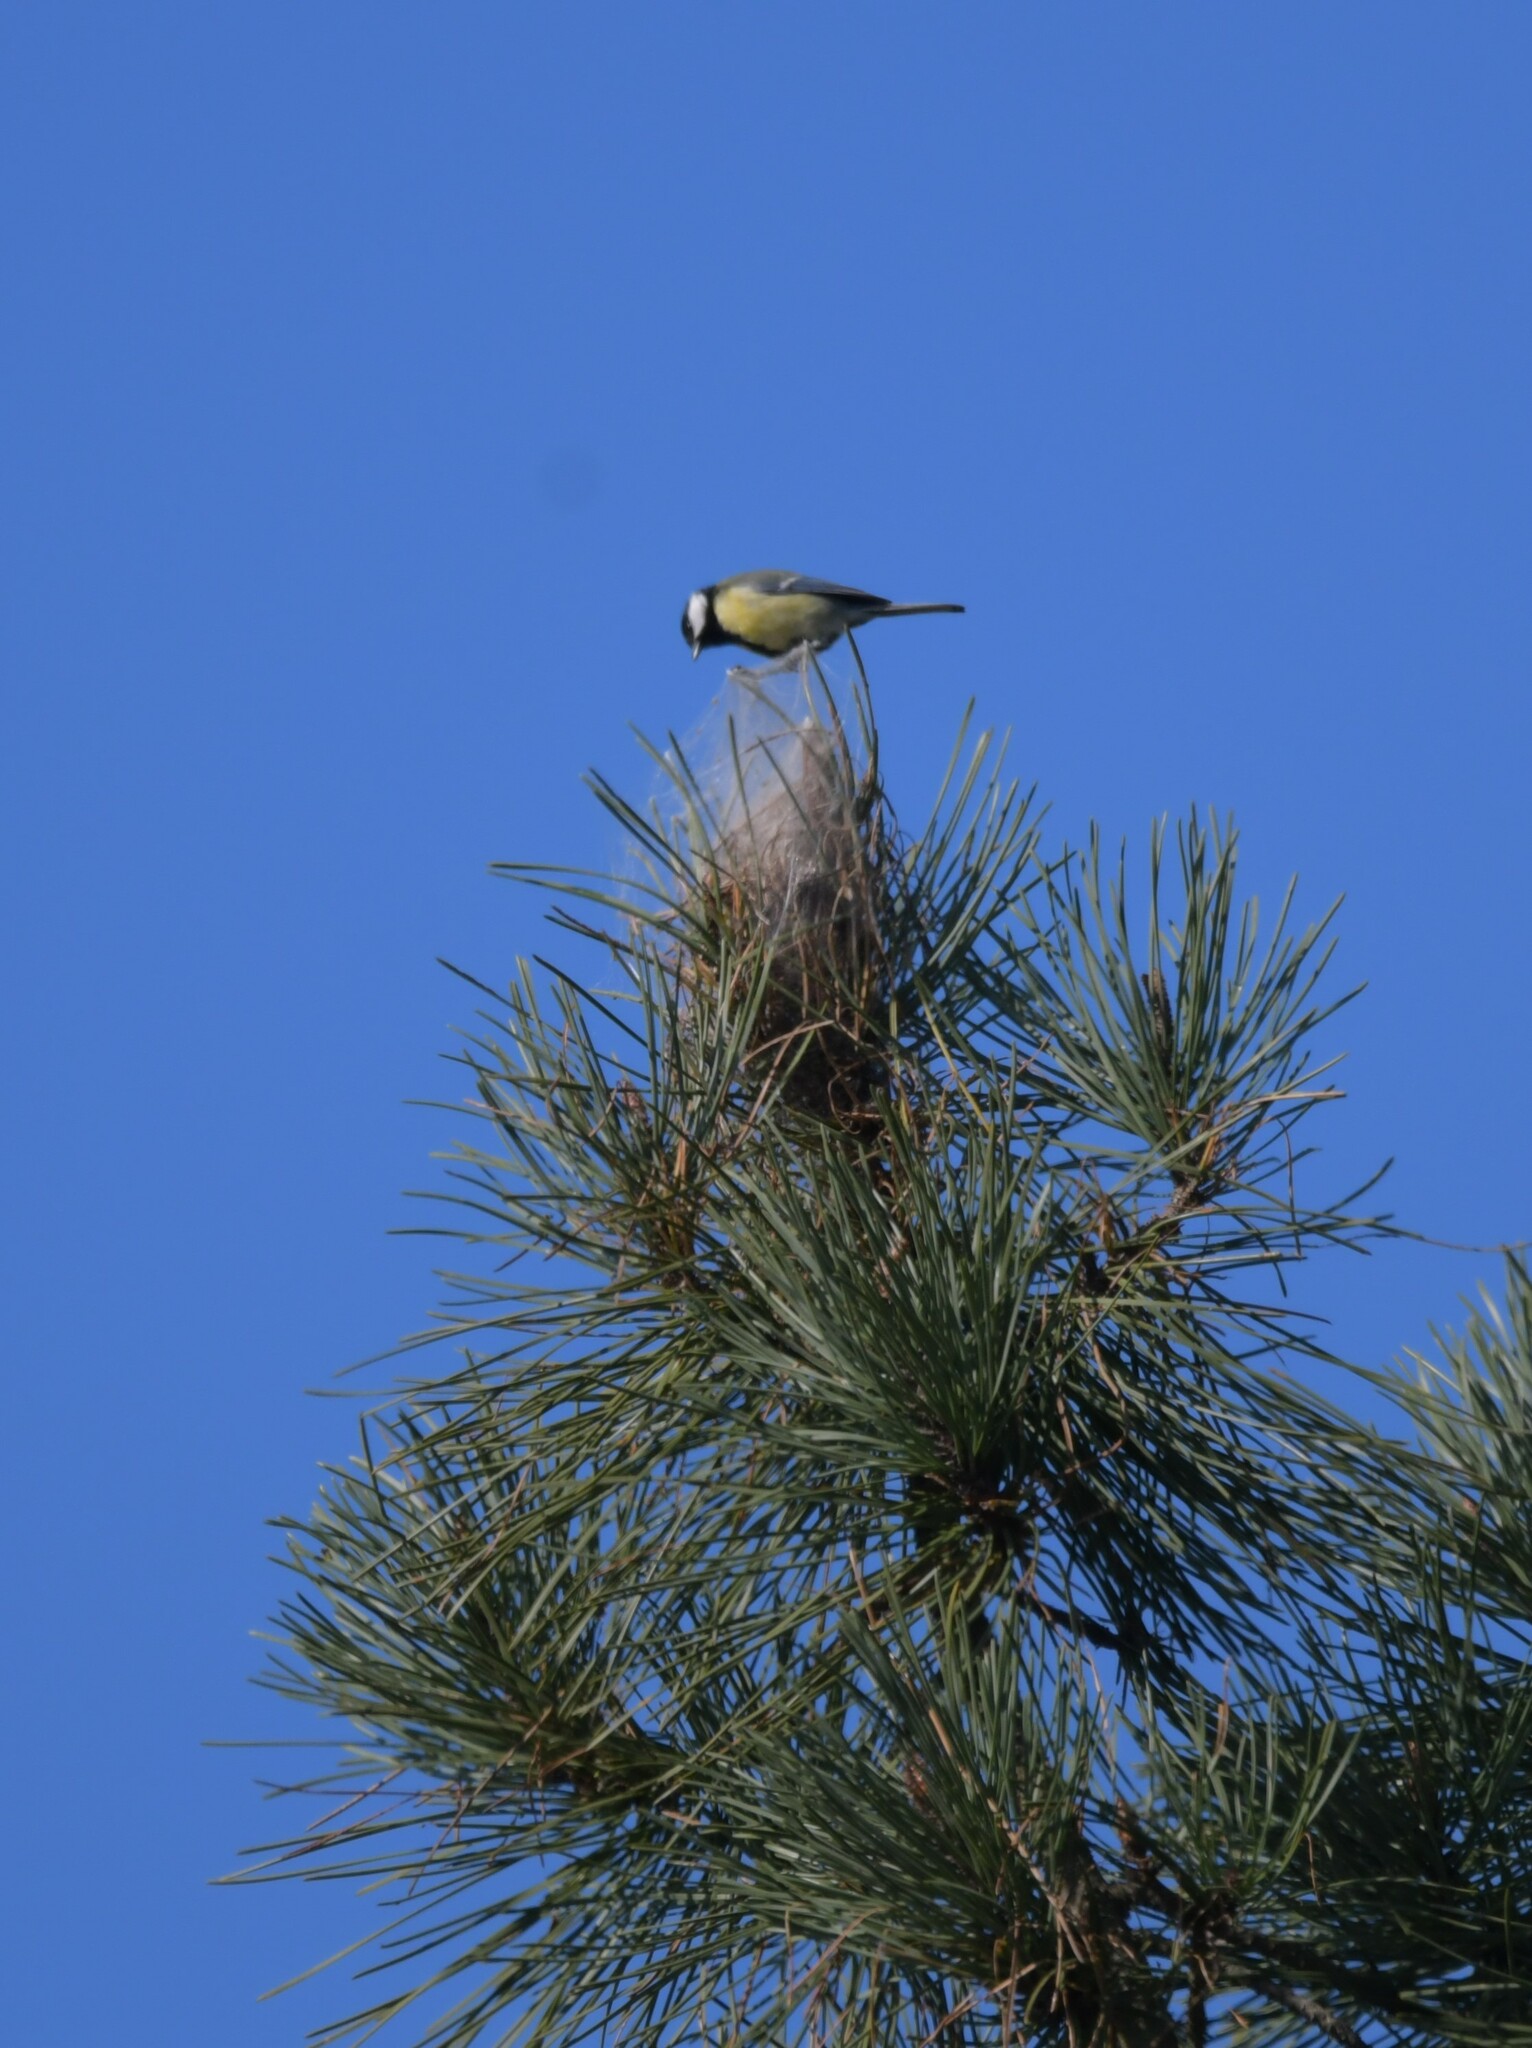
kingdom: Animalia
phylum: Chordata
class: Aves
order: Passeriformes
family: Paridae
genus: Parus
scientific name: Parus major
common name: Great tit
